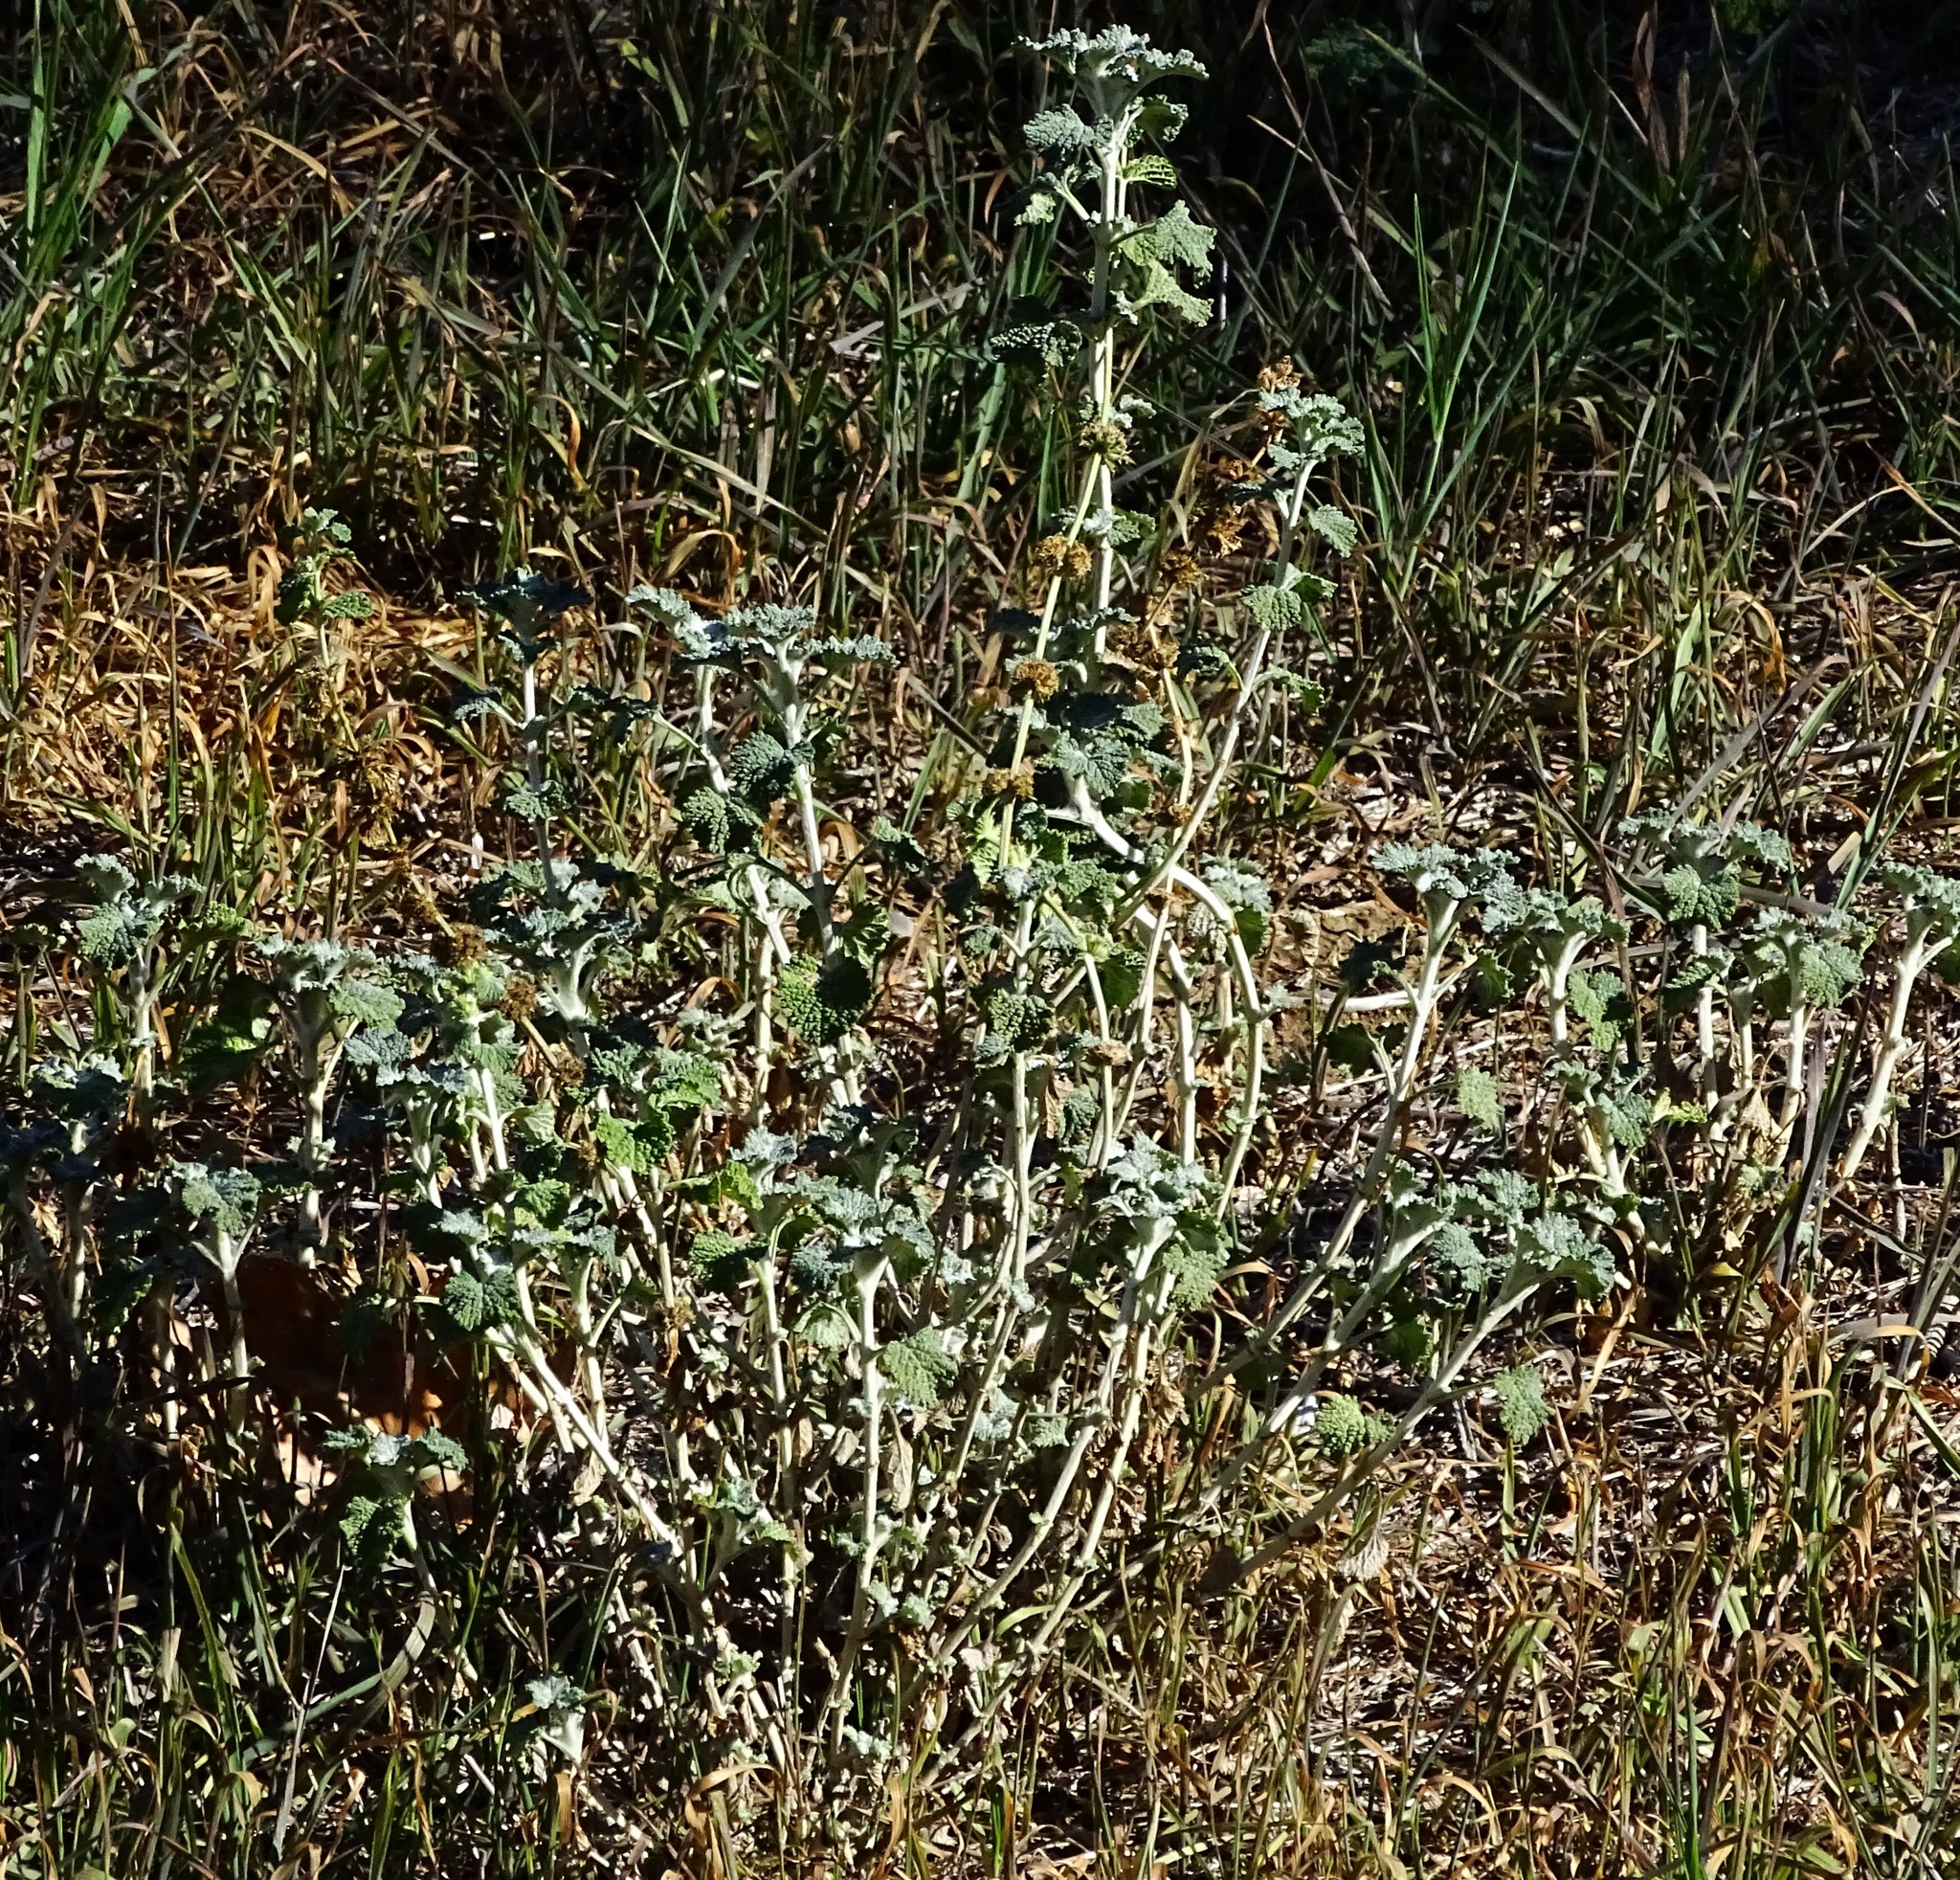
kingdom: Plantae
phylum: Tracheophyta
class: Magnoliopsida
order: Lamiales
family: Lamiaceae
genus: Marrubium
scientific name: Marrubium vulgare
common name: Horehound
